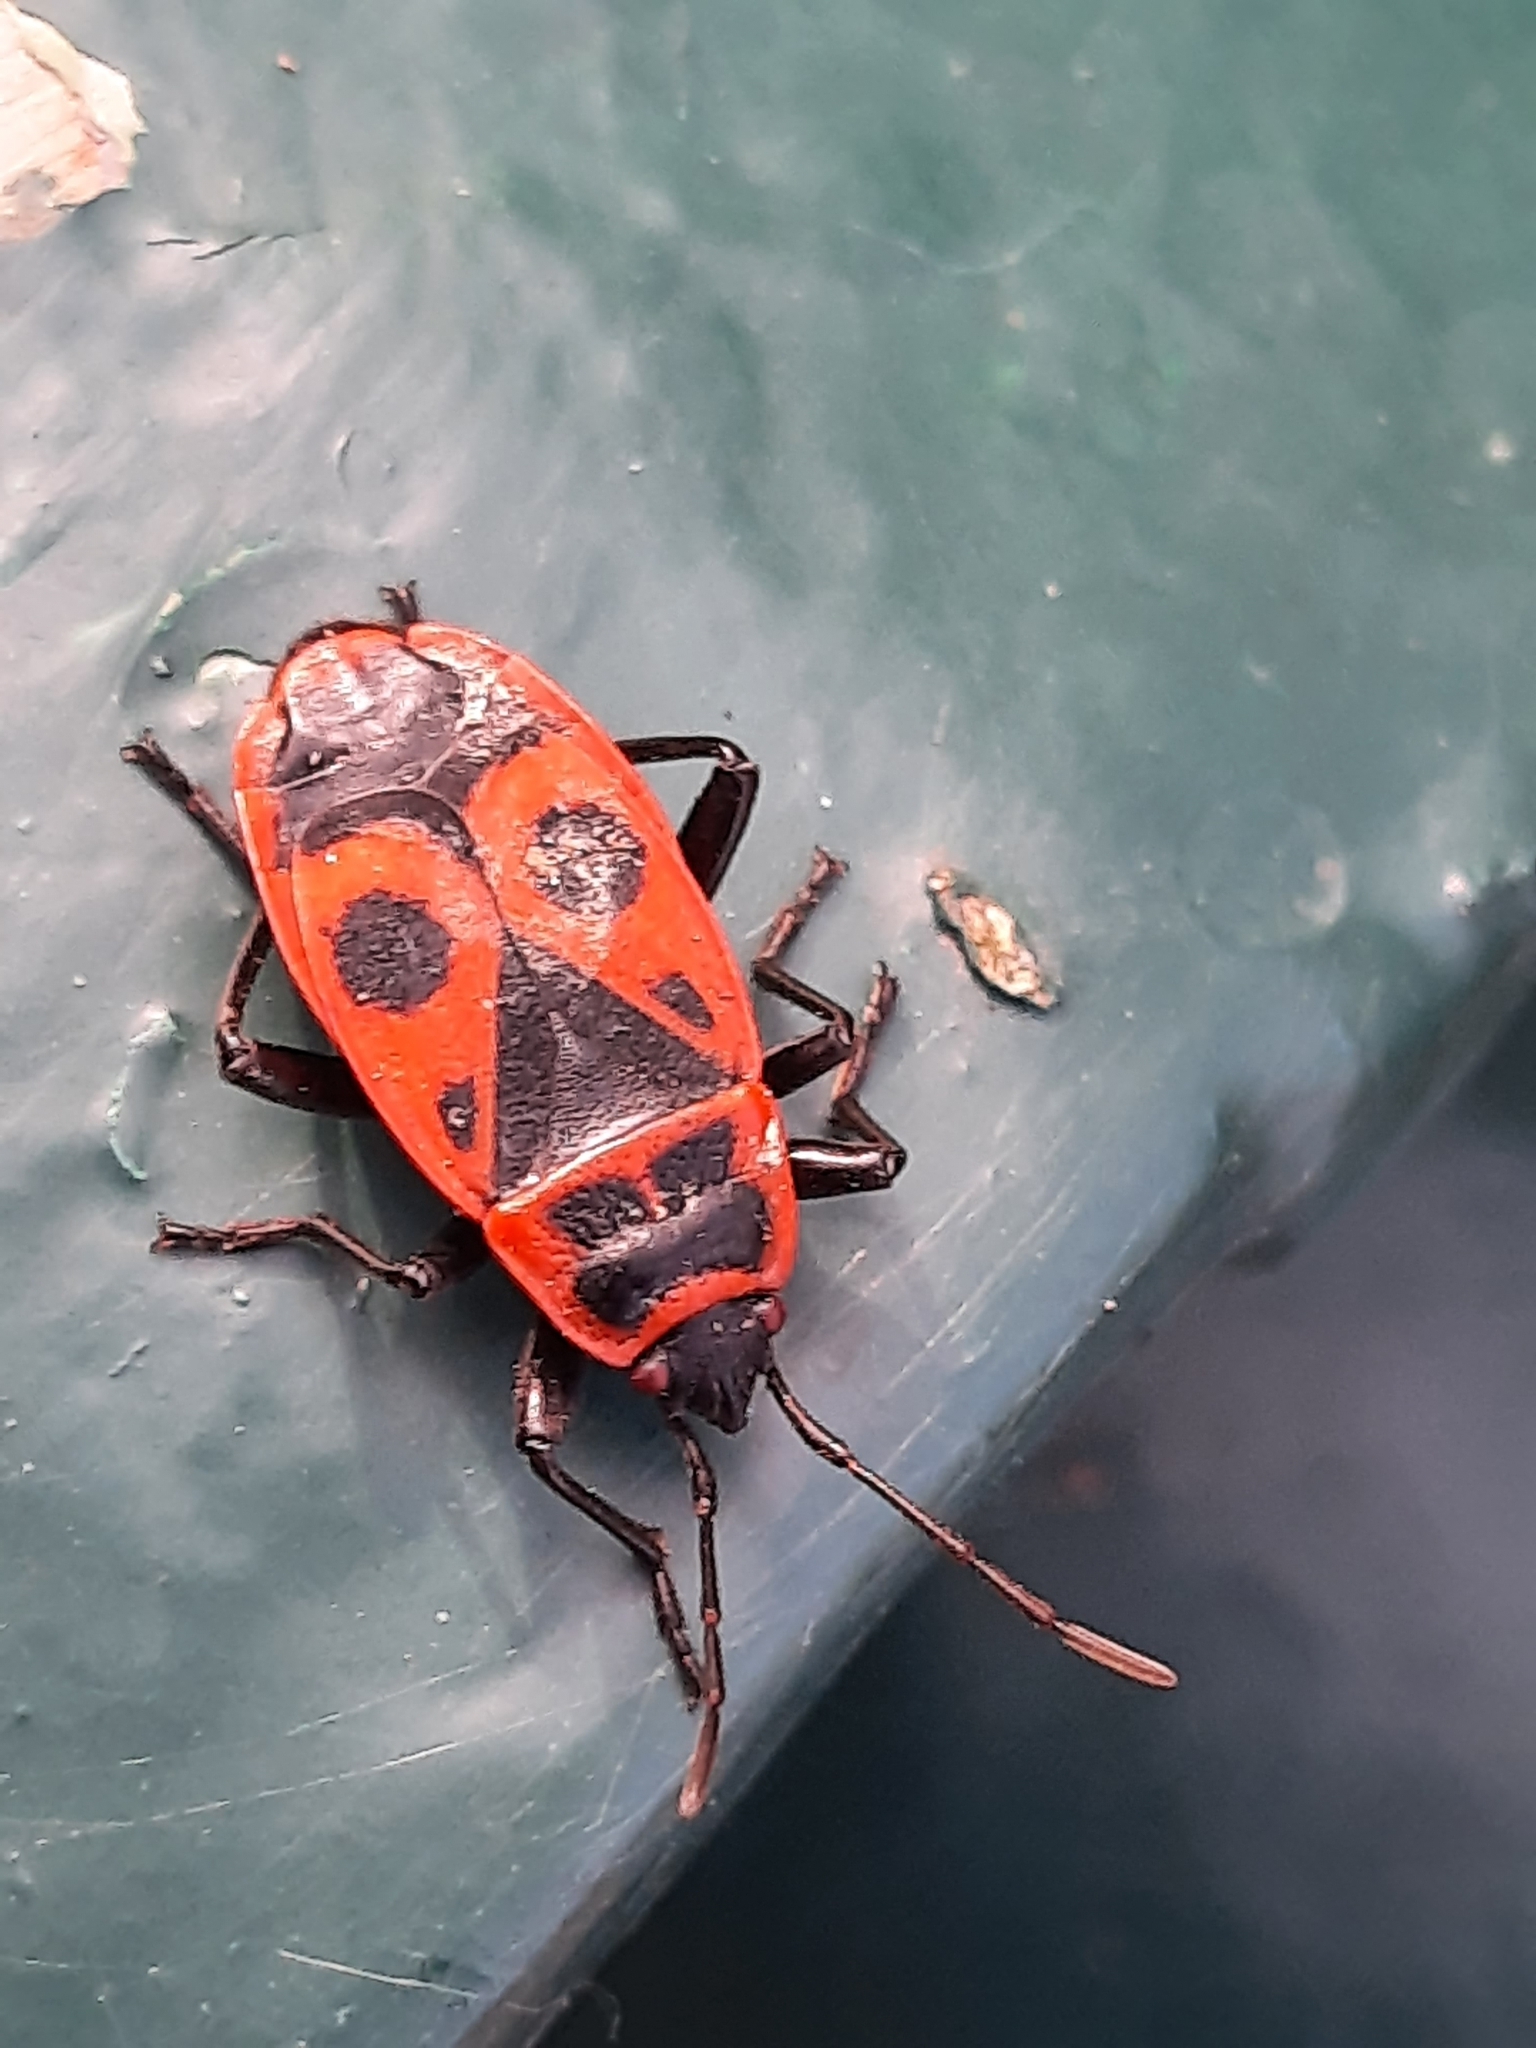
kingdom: Animalia
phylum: Arthropoda
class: Insecta
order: Hemiptera
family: Pyrrhocoridae
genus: Pyrrhocoris
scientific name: Pyrrhocoris apterus
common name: Firebug
